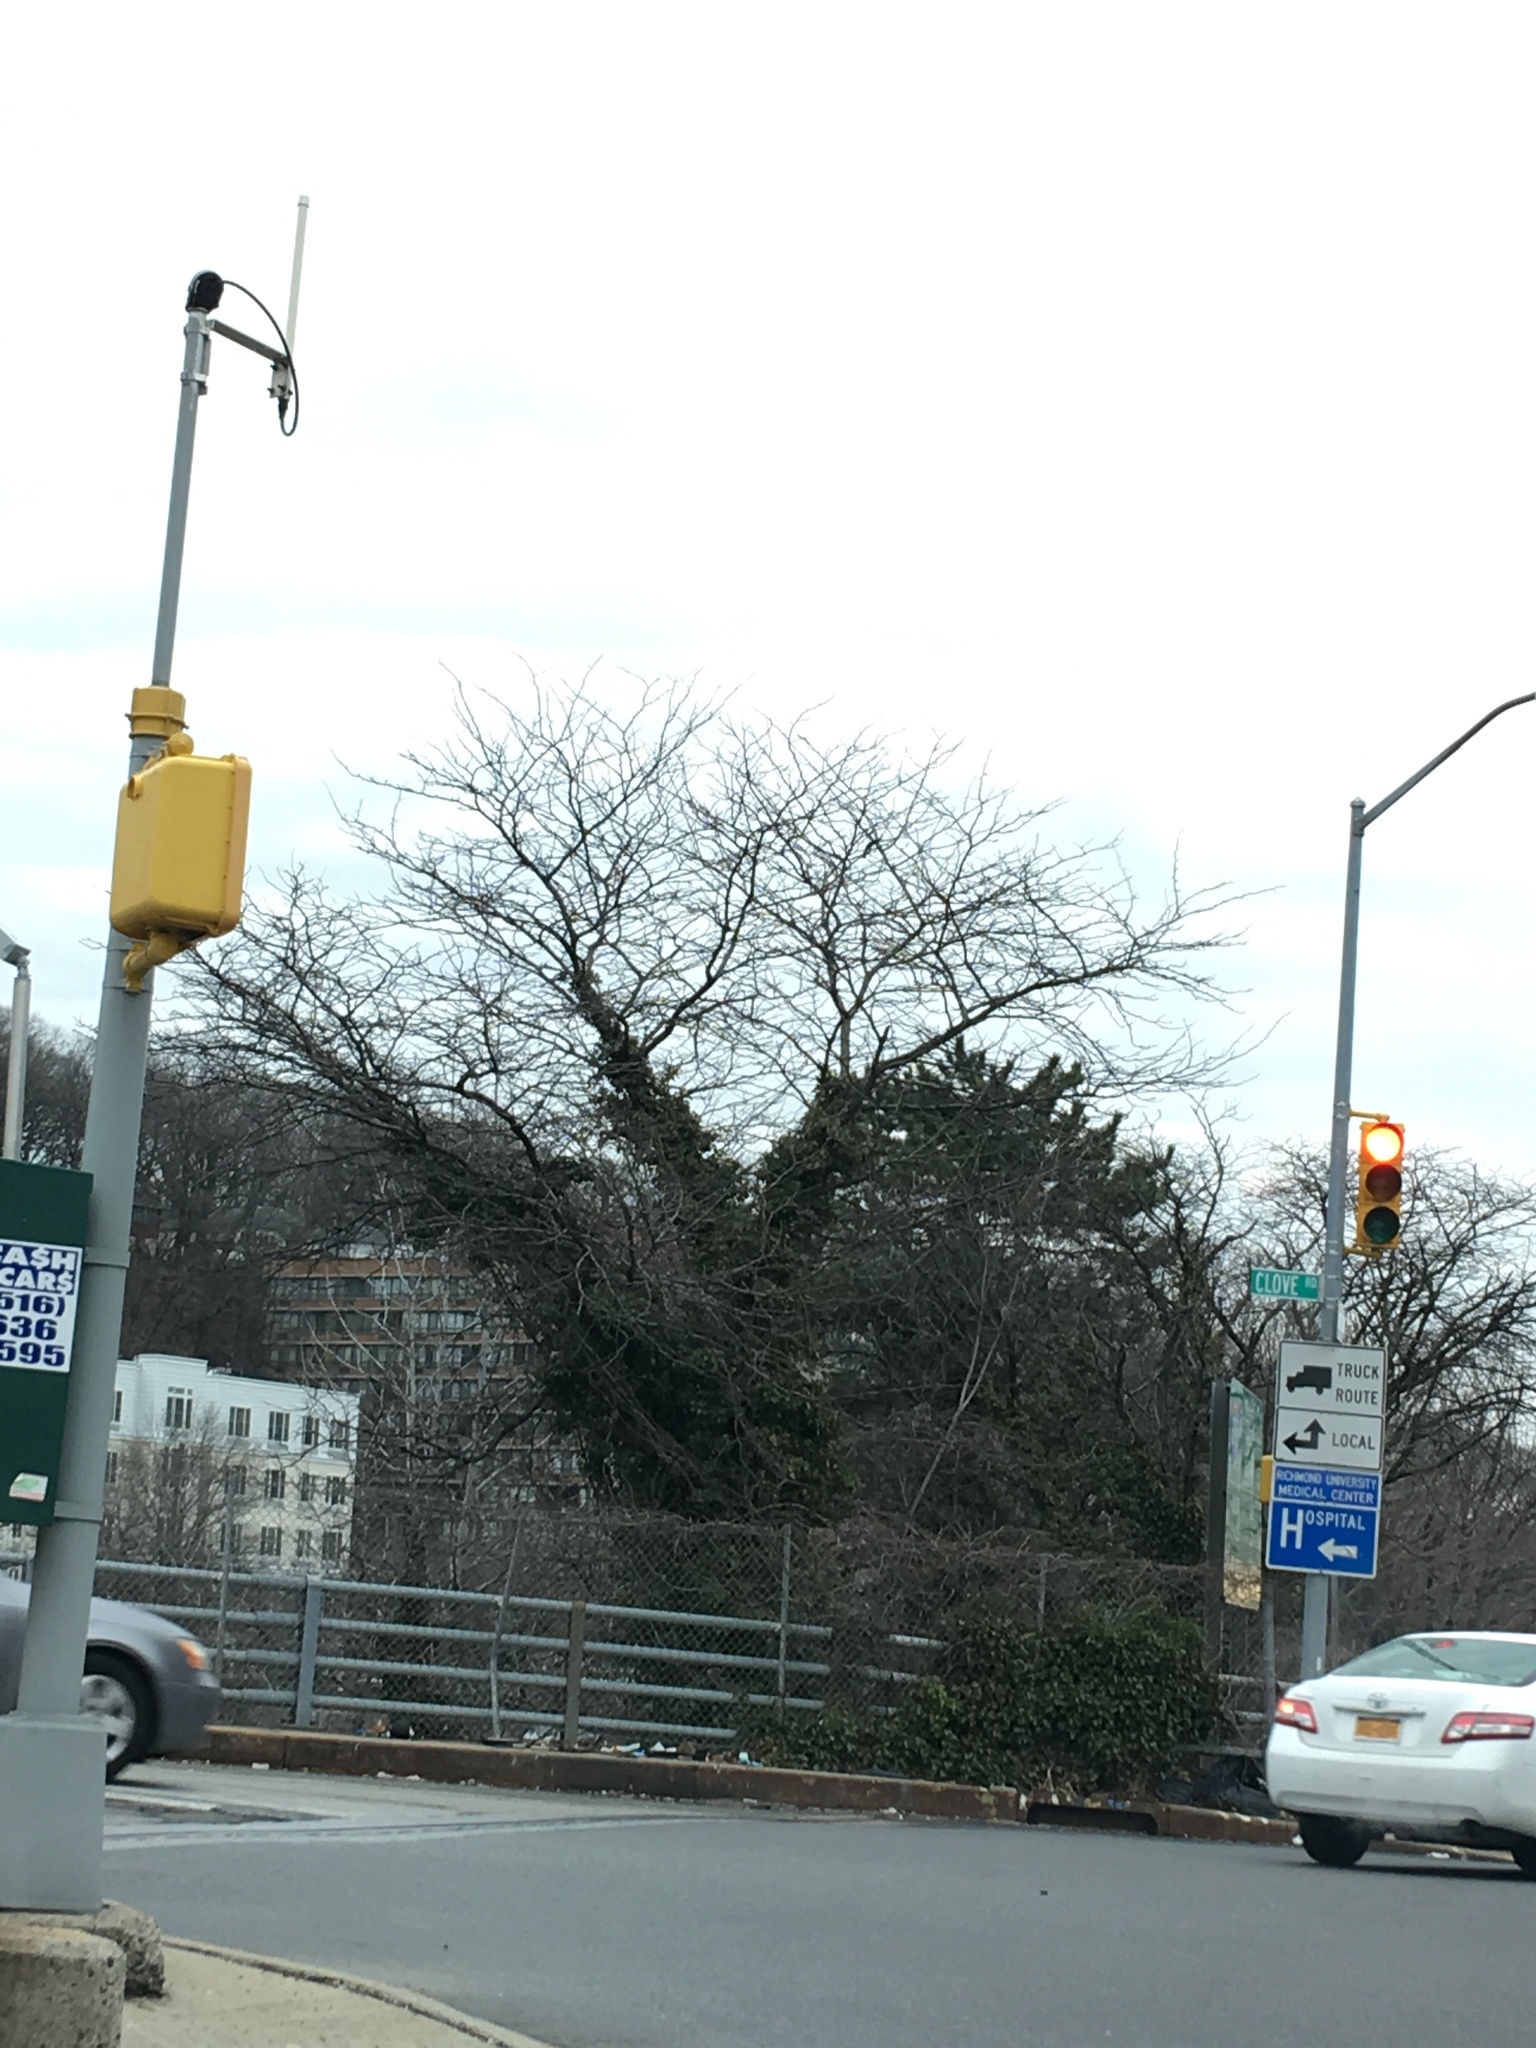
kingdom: Plantae
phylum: Tracheophyta
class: Magnoliopsida
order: Apiales
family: Araliaceae
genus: Hedera
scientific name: Hedera helix
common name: Ivy
